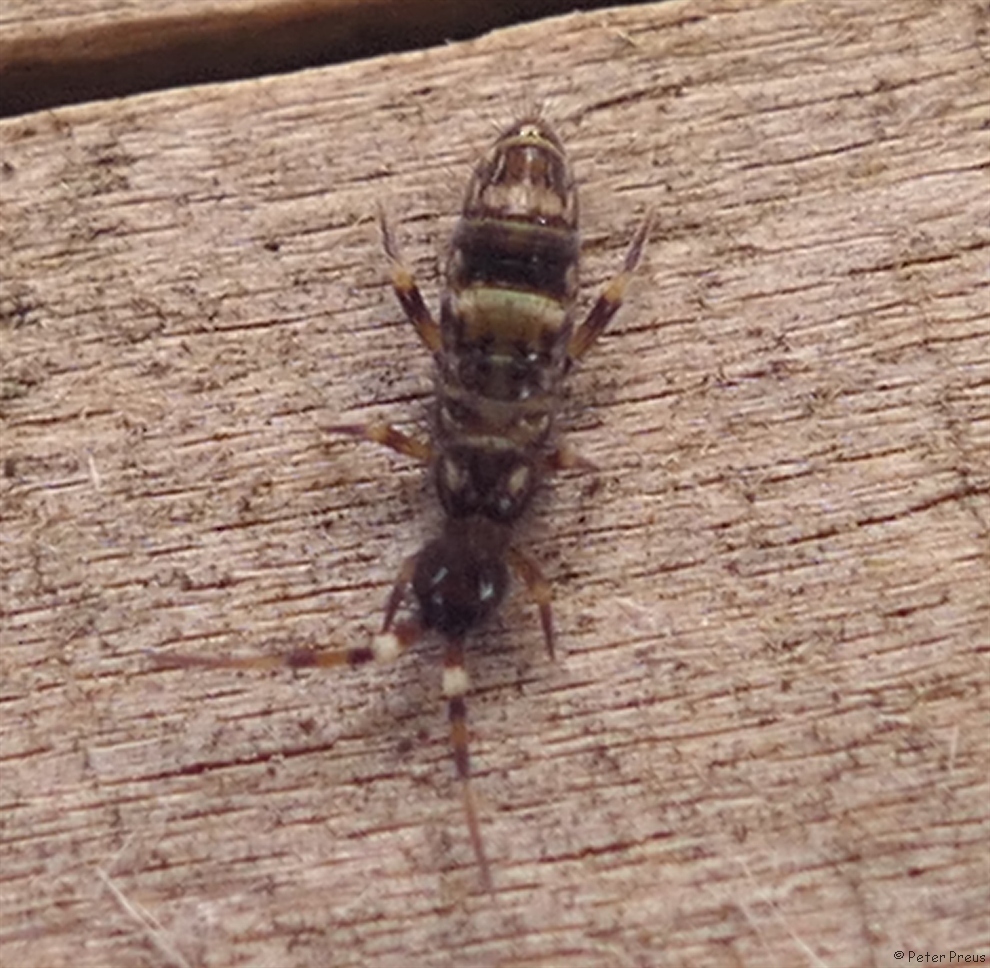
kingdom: Animalia
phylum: Arthropoda
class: Collembola
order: Entomobryomorpha
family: Orchesellidae
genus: Orchesella
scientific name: Orchesella cincta
